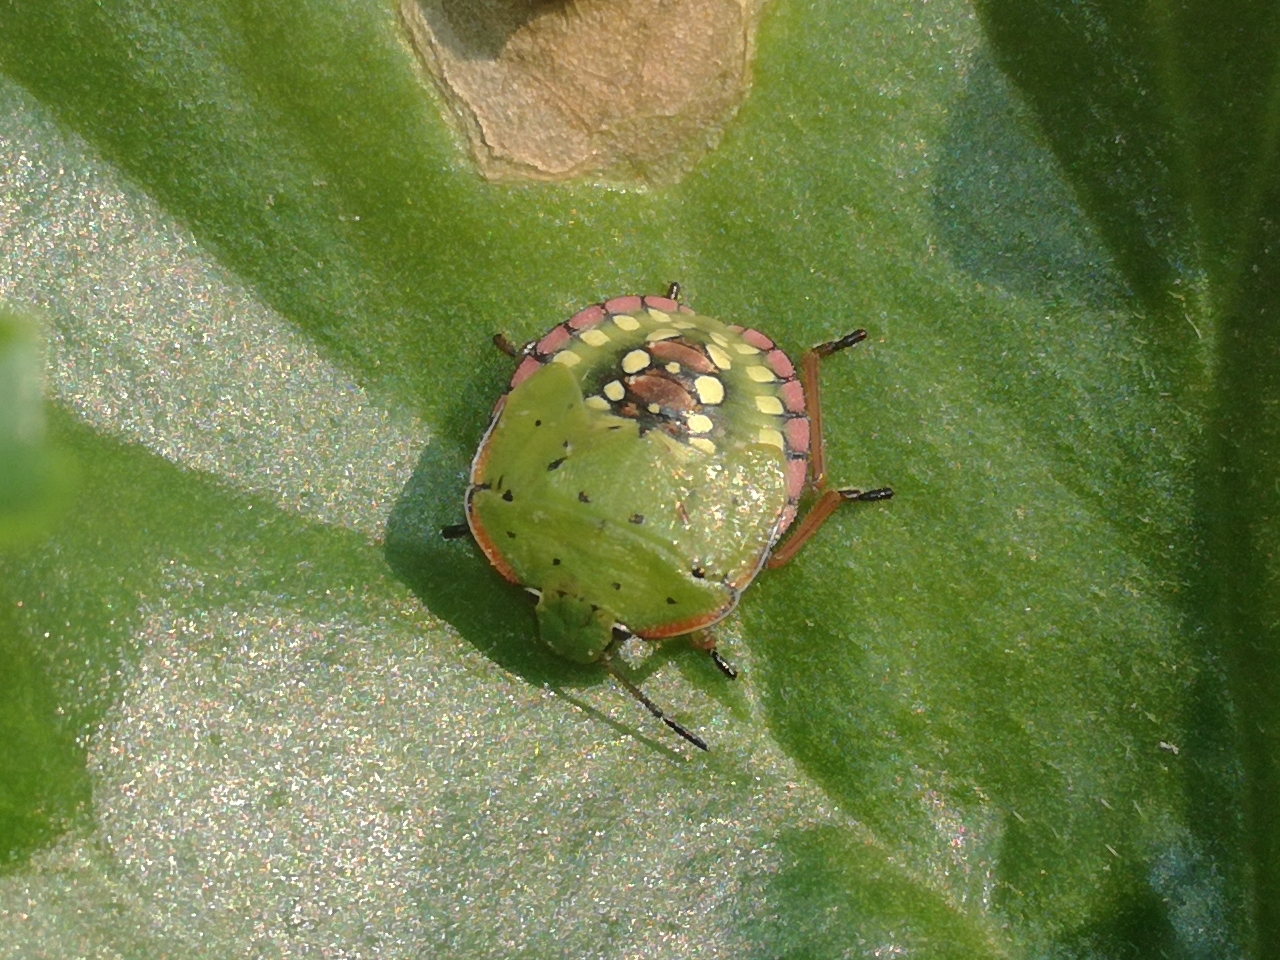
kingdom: Animalia
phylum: Arthropoda
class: Insecta
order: Hemiptera
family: Pentatomidae
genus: Nezara
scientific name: Nezara viridula
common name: Southern green stink bug
